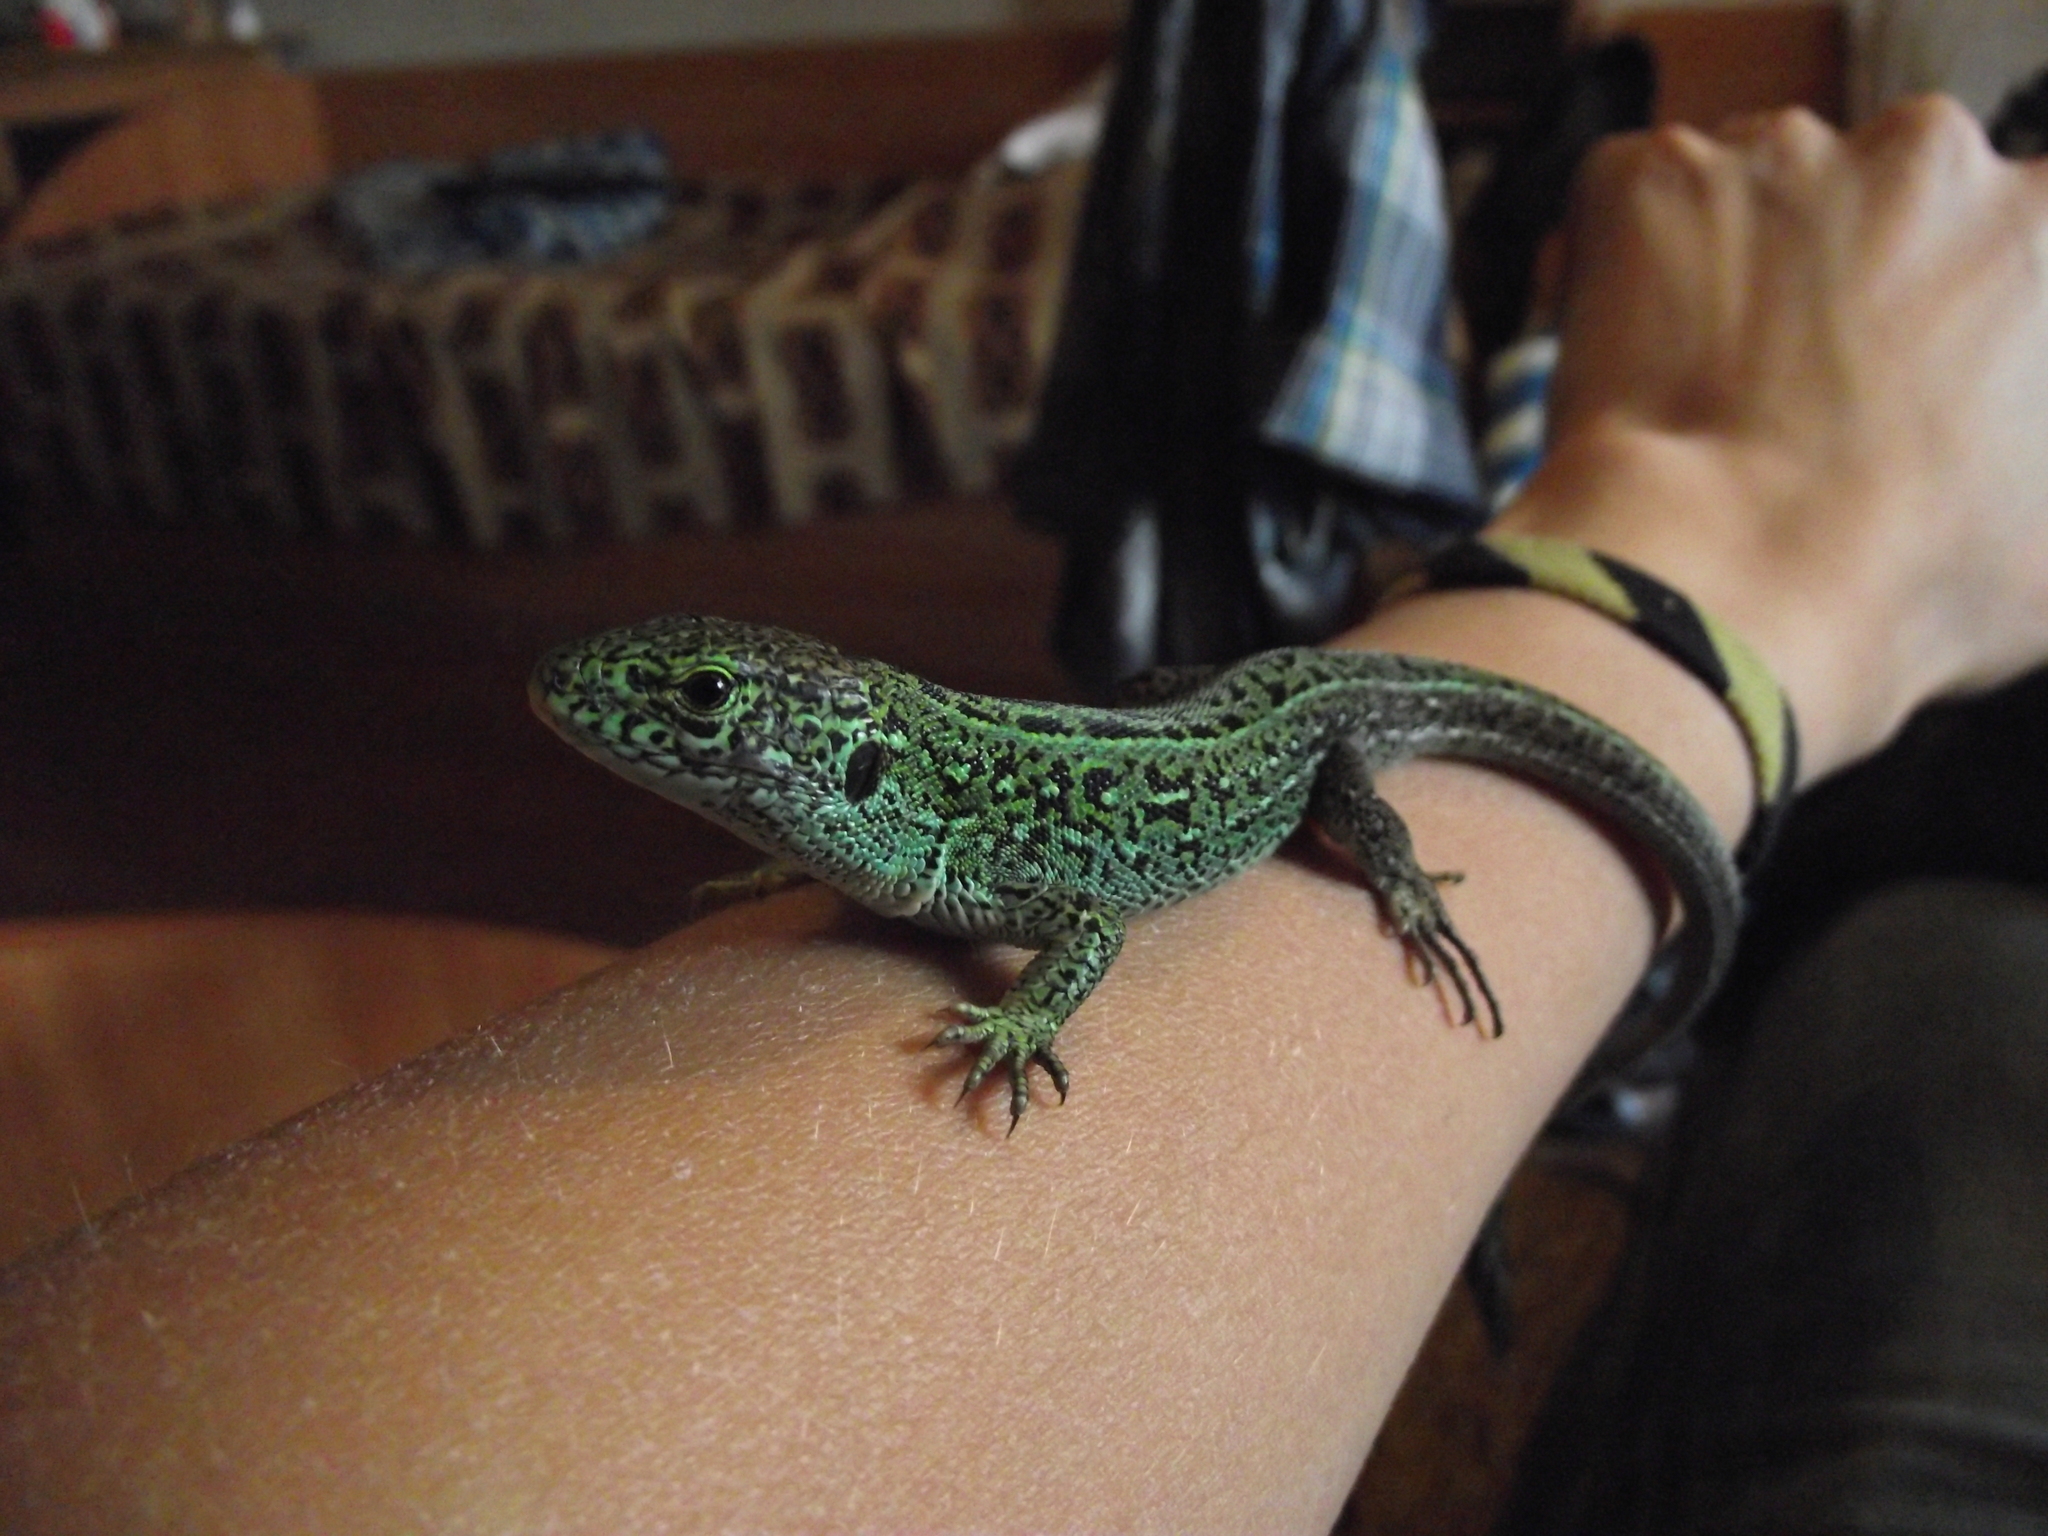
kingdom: Animalia
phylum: Chordata
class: Squamata
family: Lacertidae
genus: Lacerta
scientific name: Lacerta agilis
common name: Sand lizard
